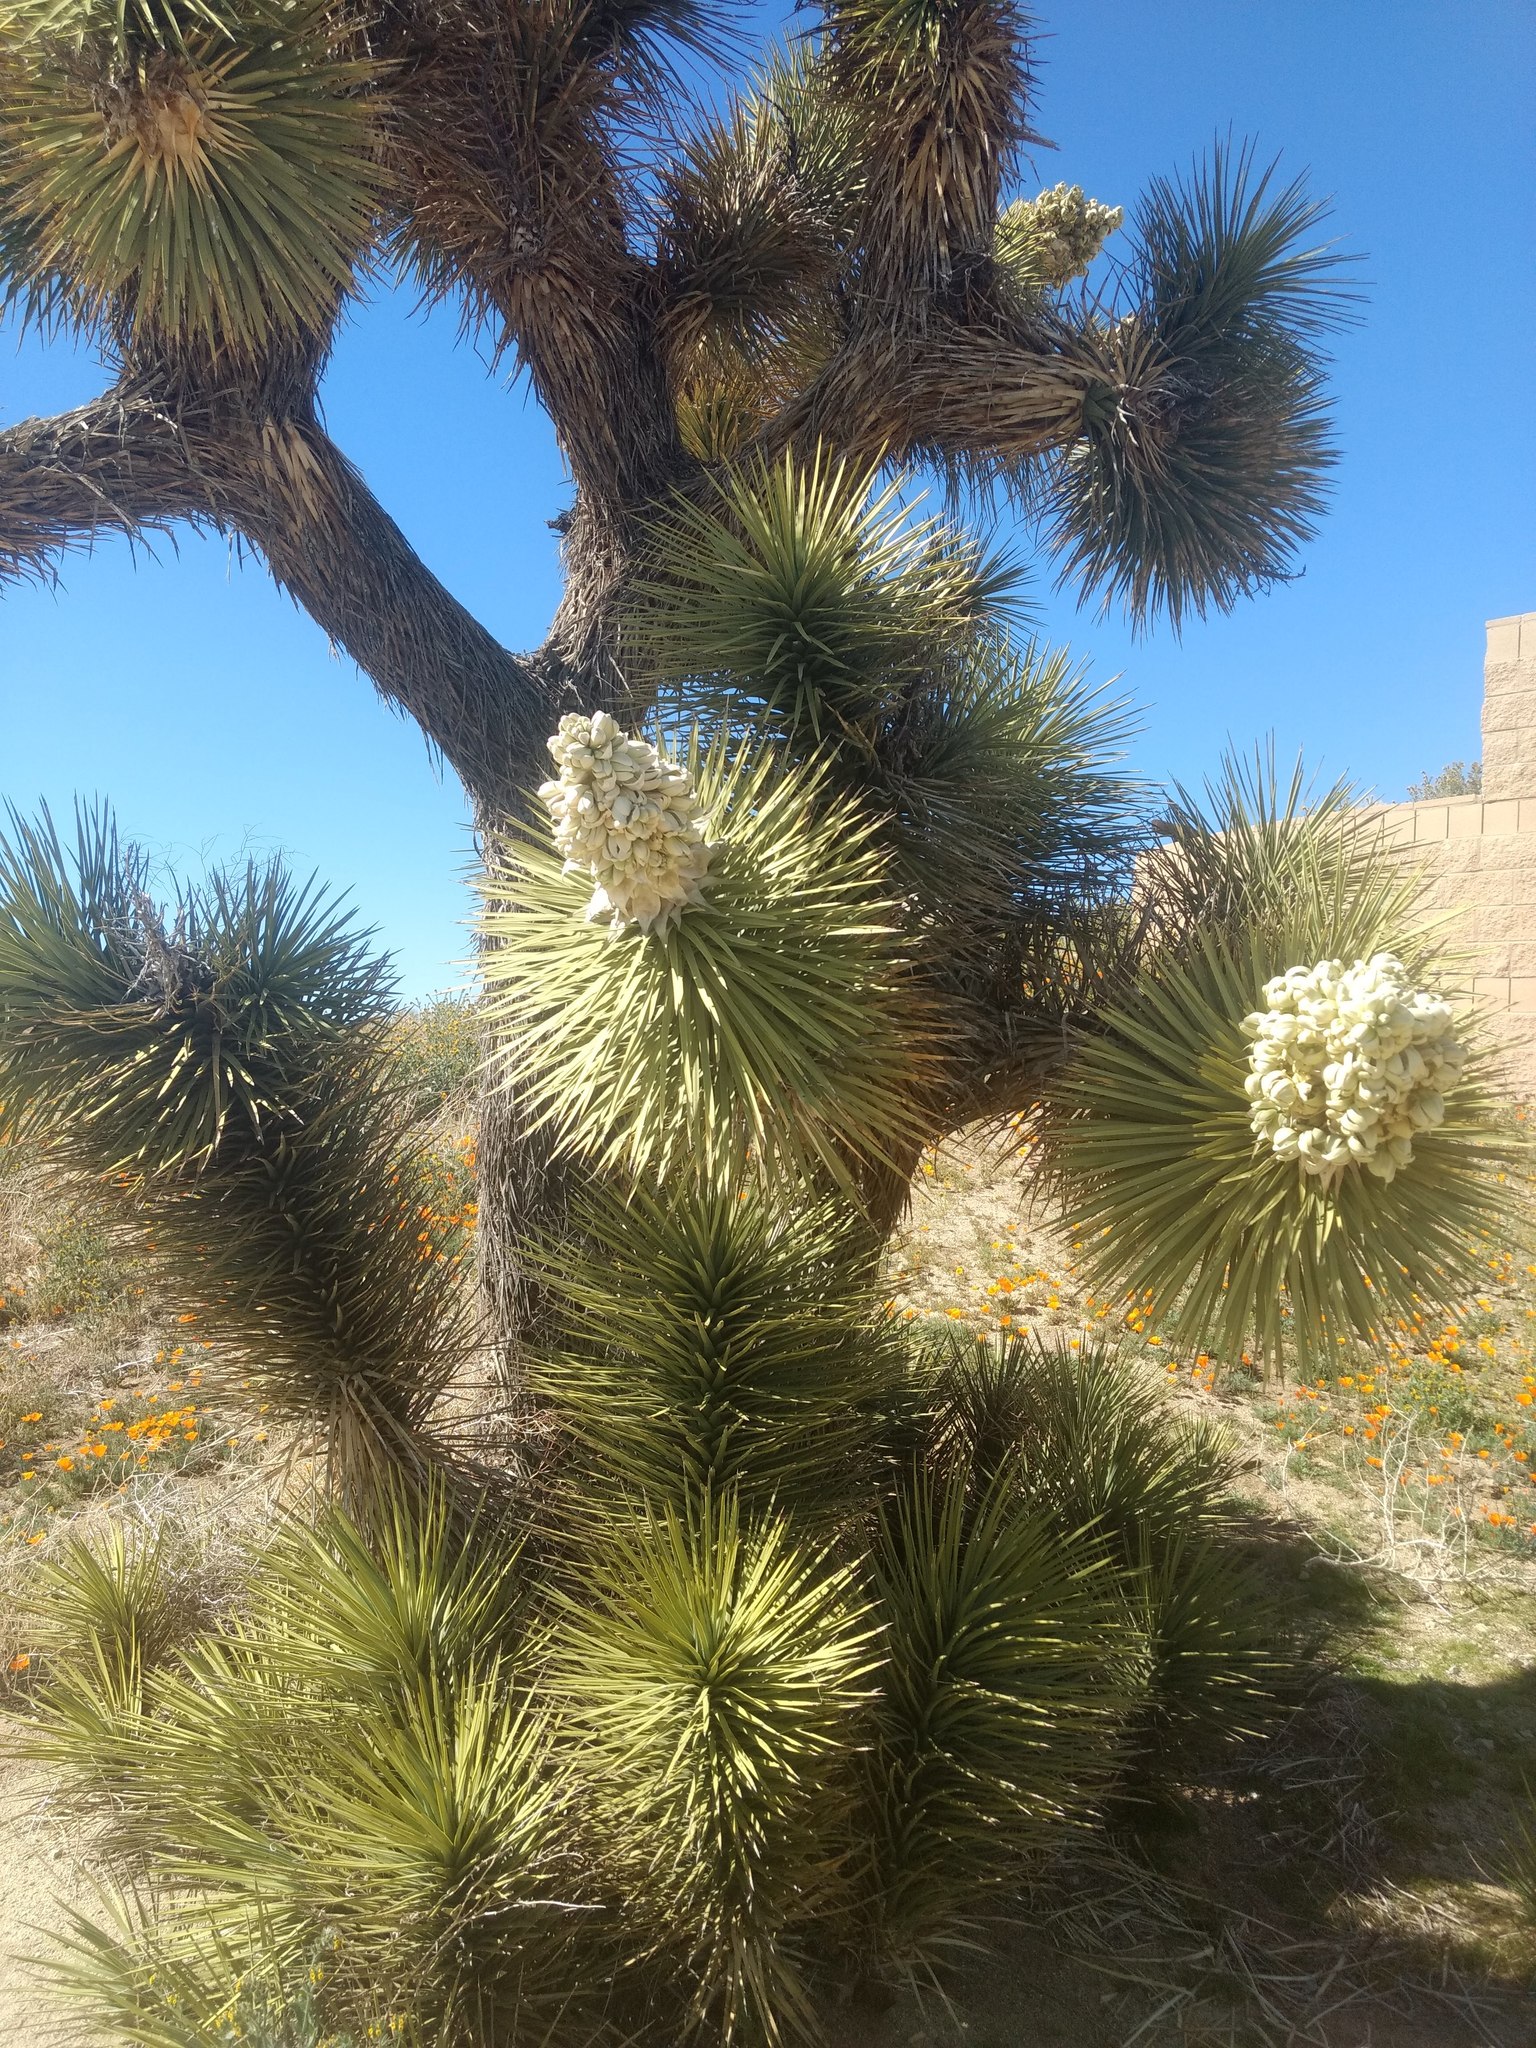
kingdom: Plantae
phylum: Tracheophyta
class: Liliopsida
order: Asparagales
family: Asparagaceae
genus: Yucca
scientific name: Yucca brevifolia
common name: Joshua tree
